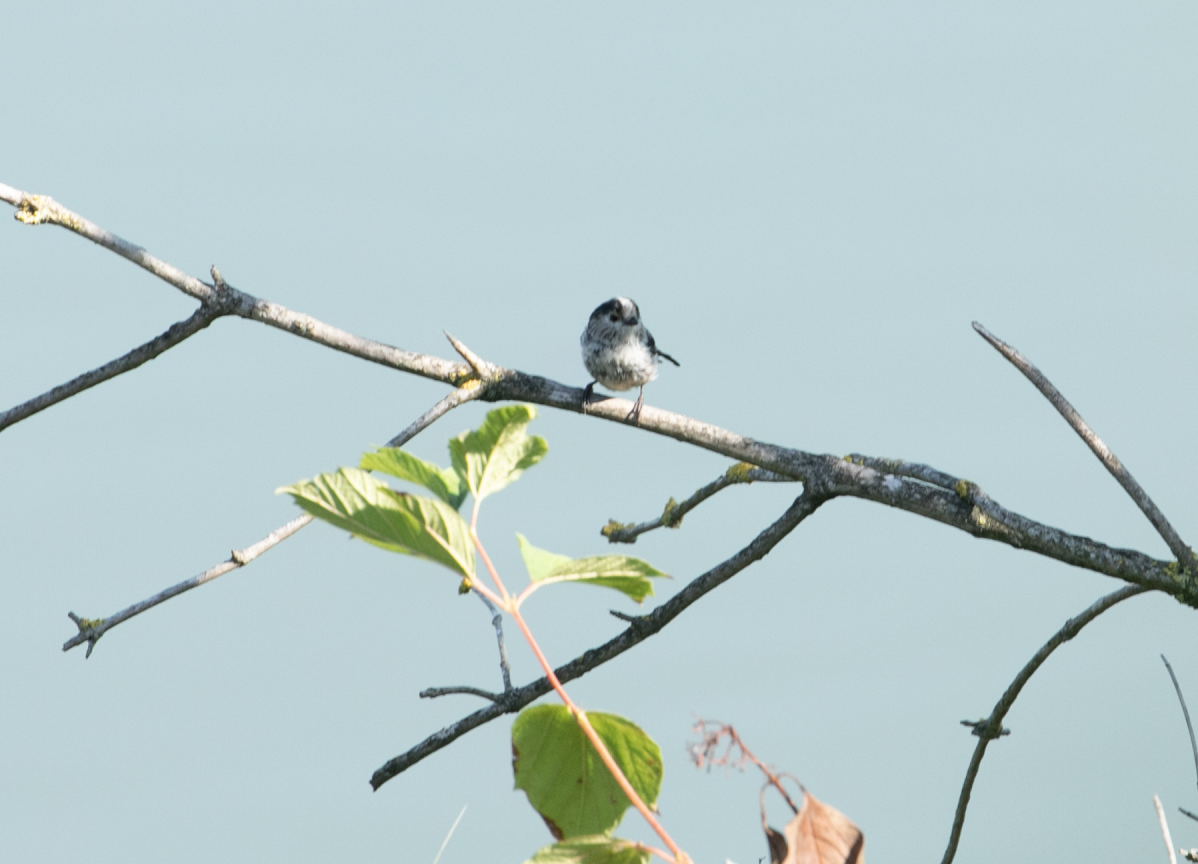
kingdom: Animalia
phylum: Chordata
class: Aves
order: Passeriformes
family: Aegithalidae
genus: Aegithalos
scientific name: Aegithalos caudatus
